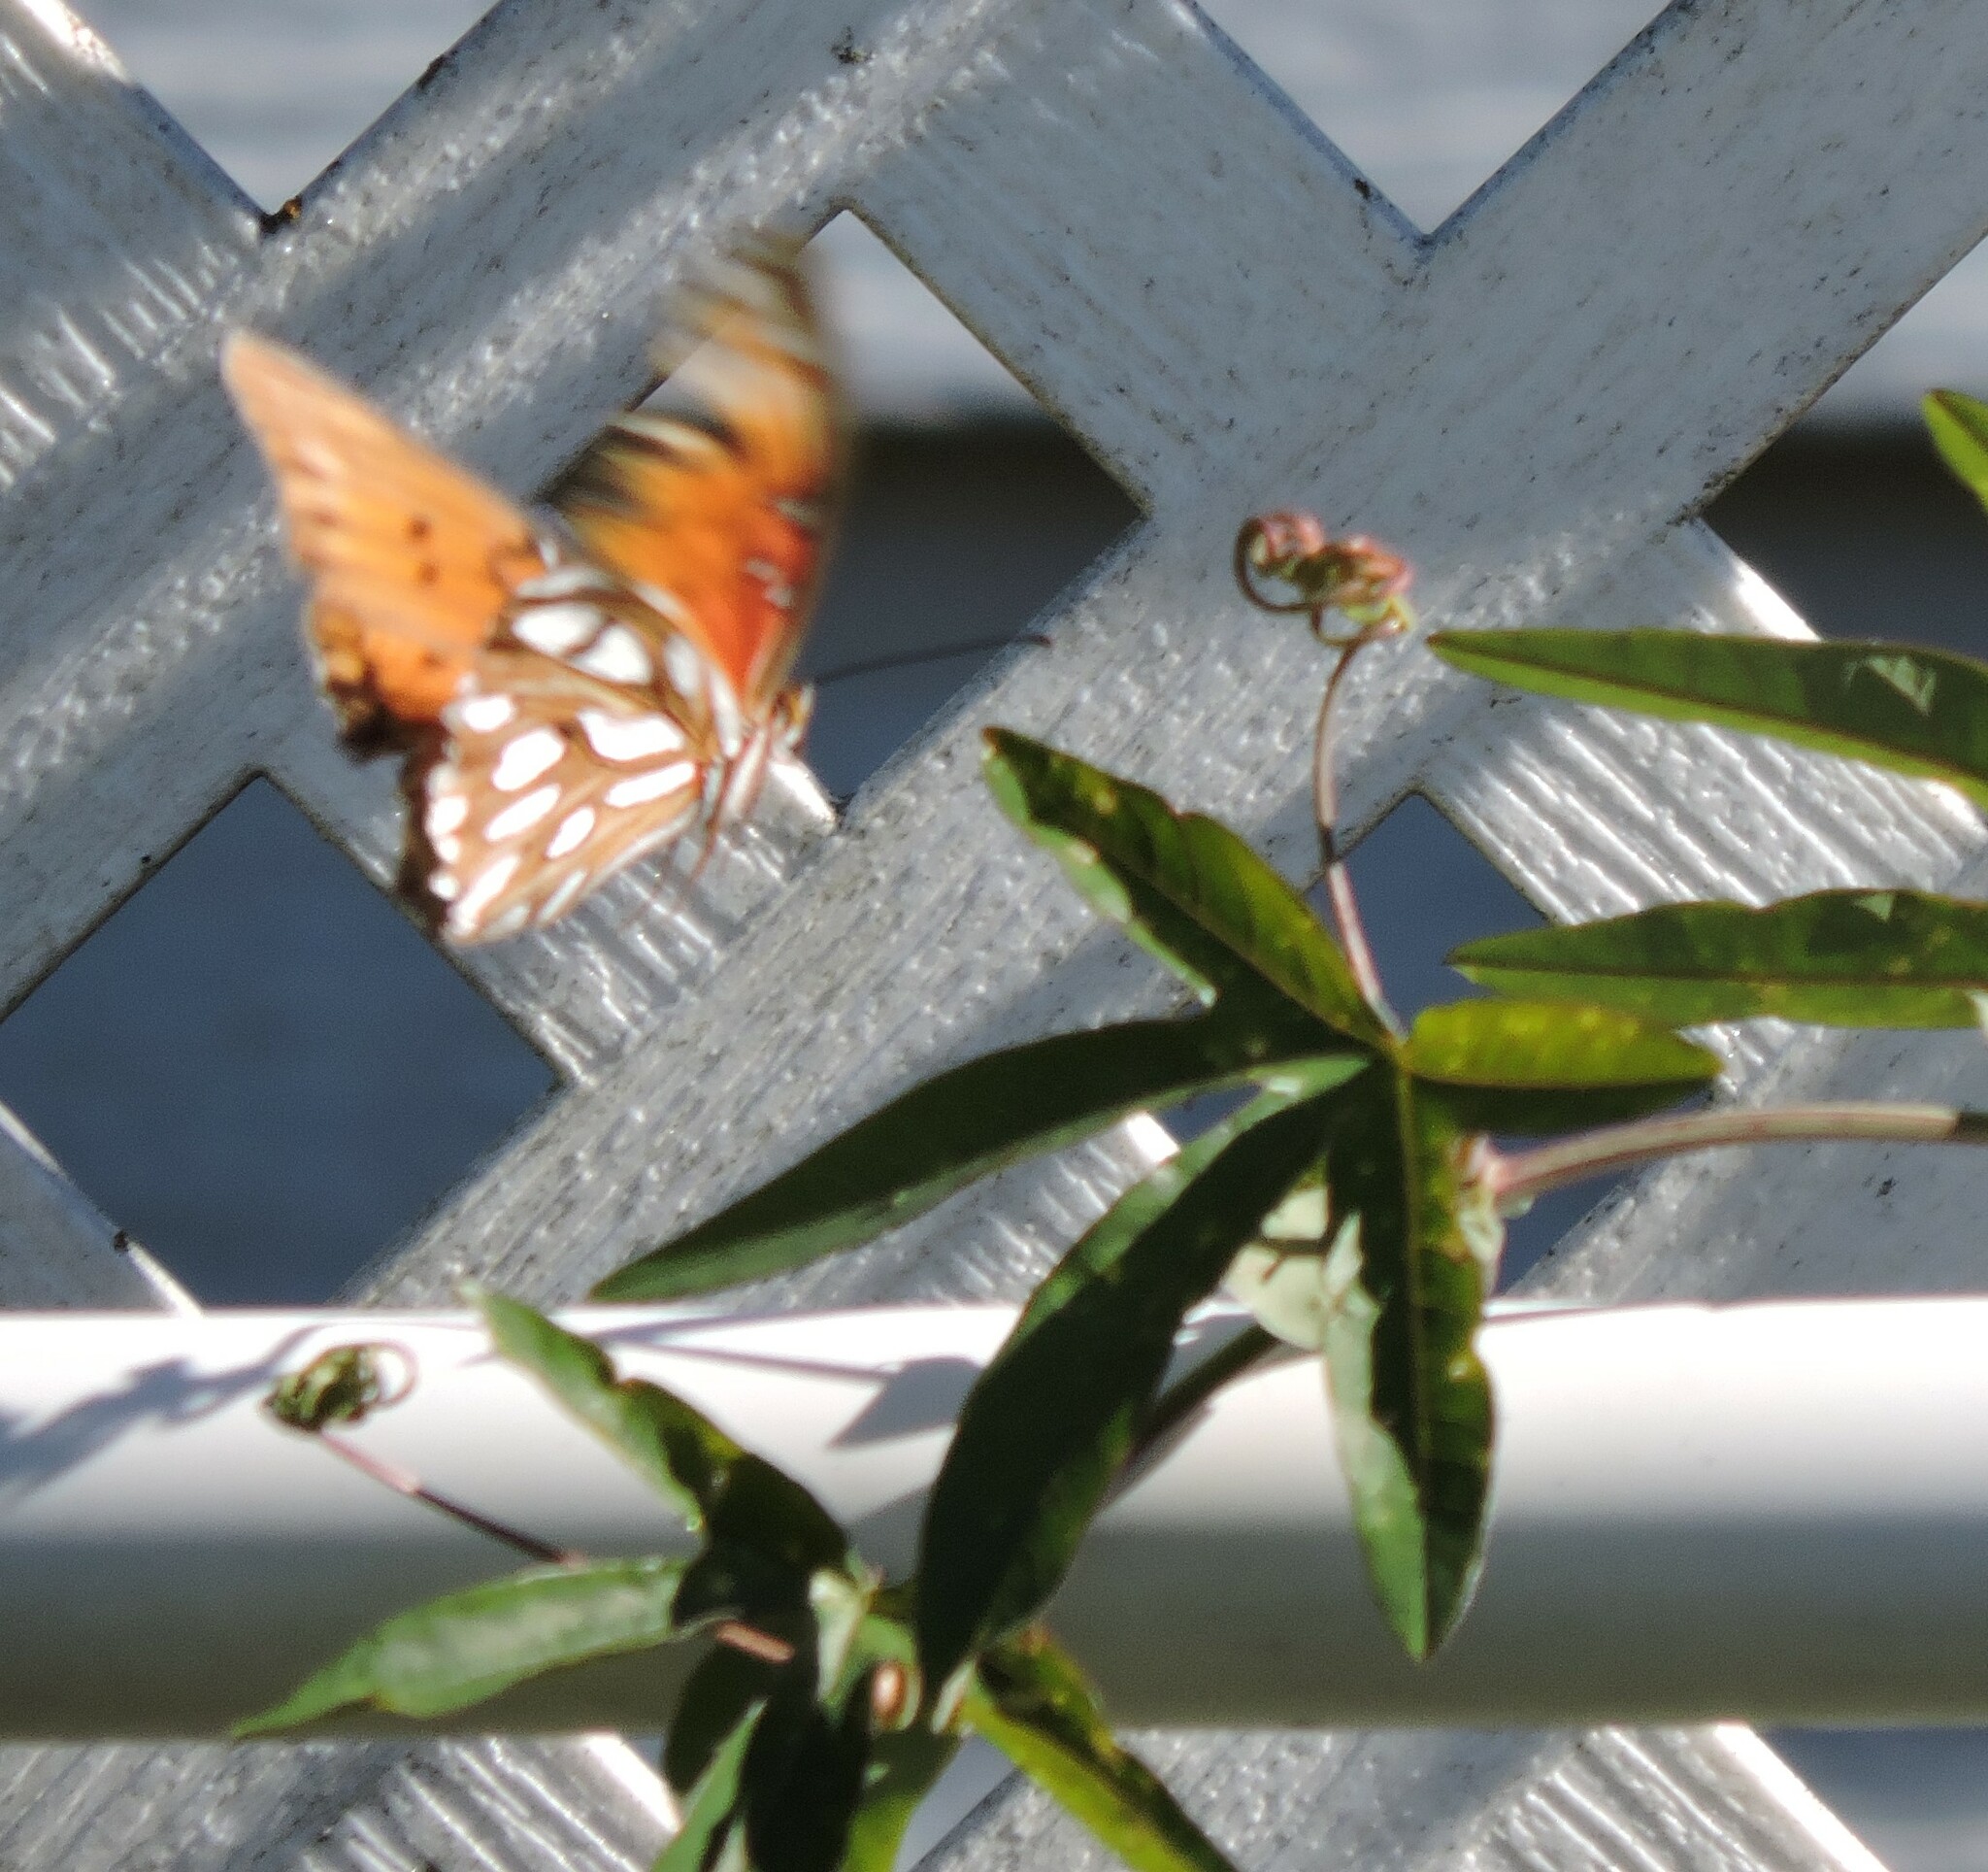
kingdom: Animalia
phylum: Arthropoda
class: Insecta
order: Lepidoptera
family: Nymphalidae
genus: Dione
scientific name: Dione vanillae
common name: Gulf fritillary
